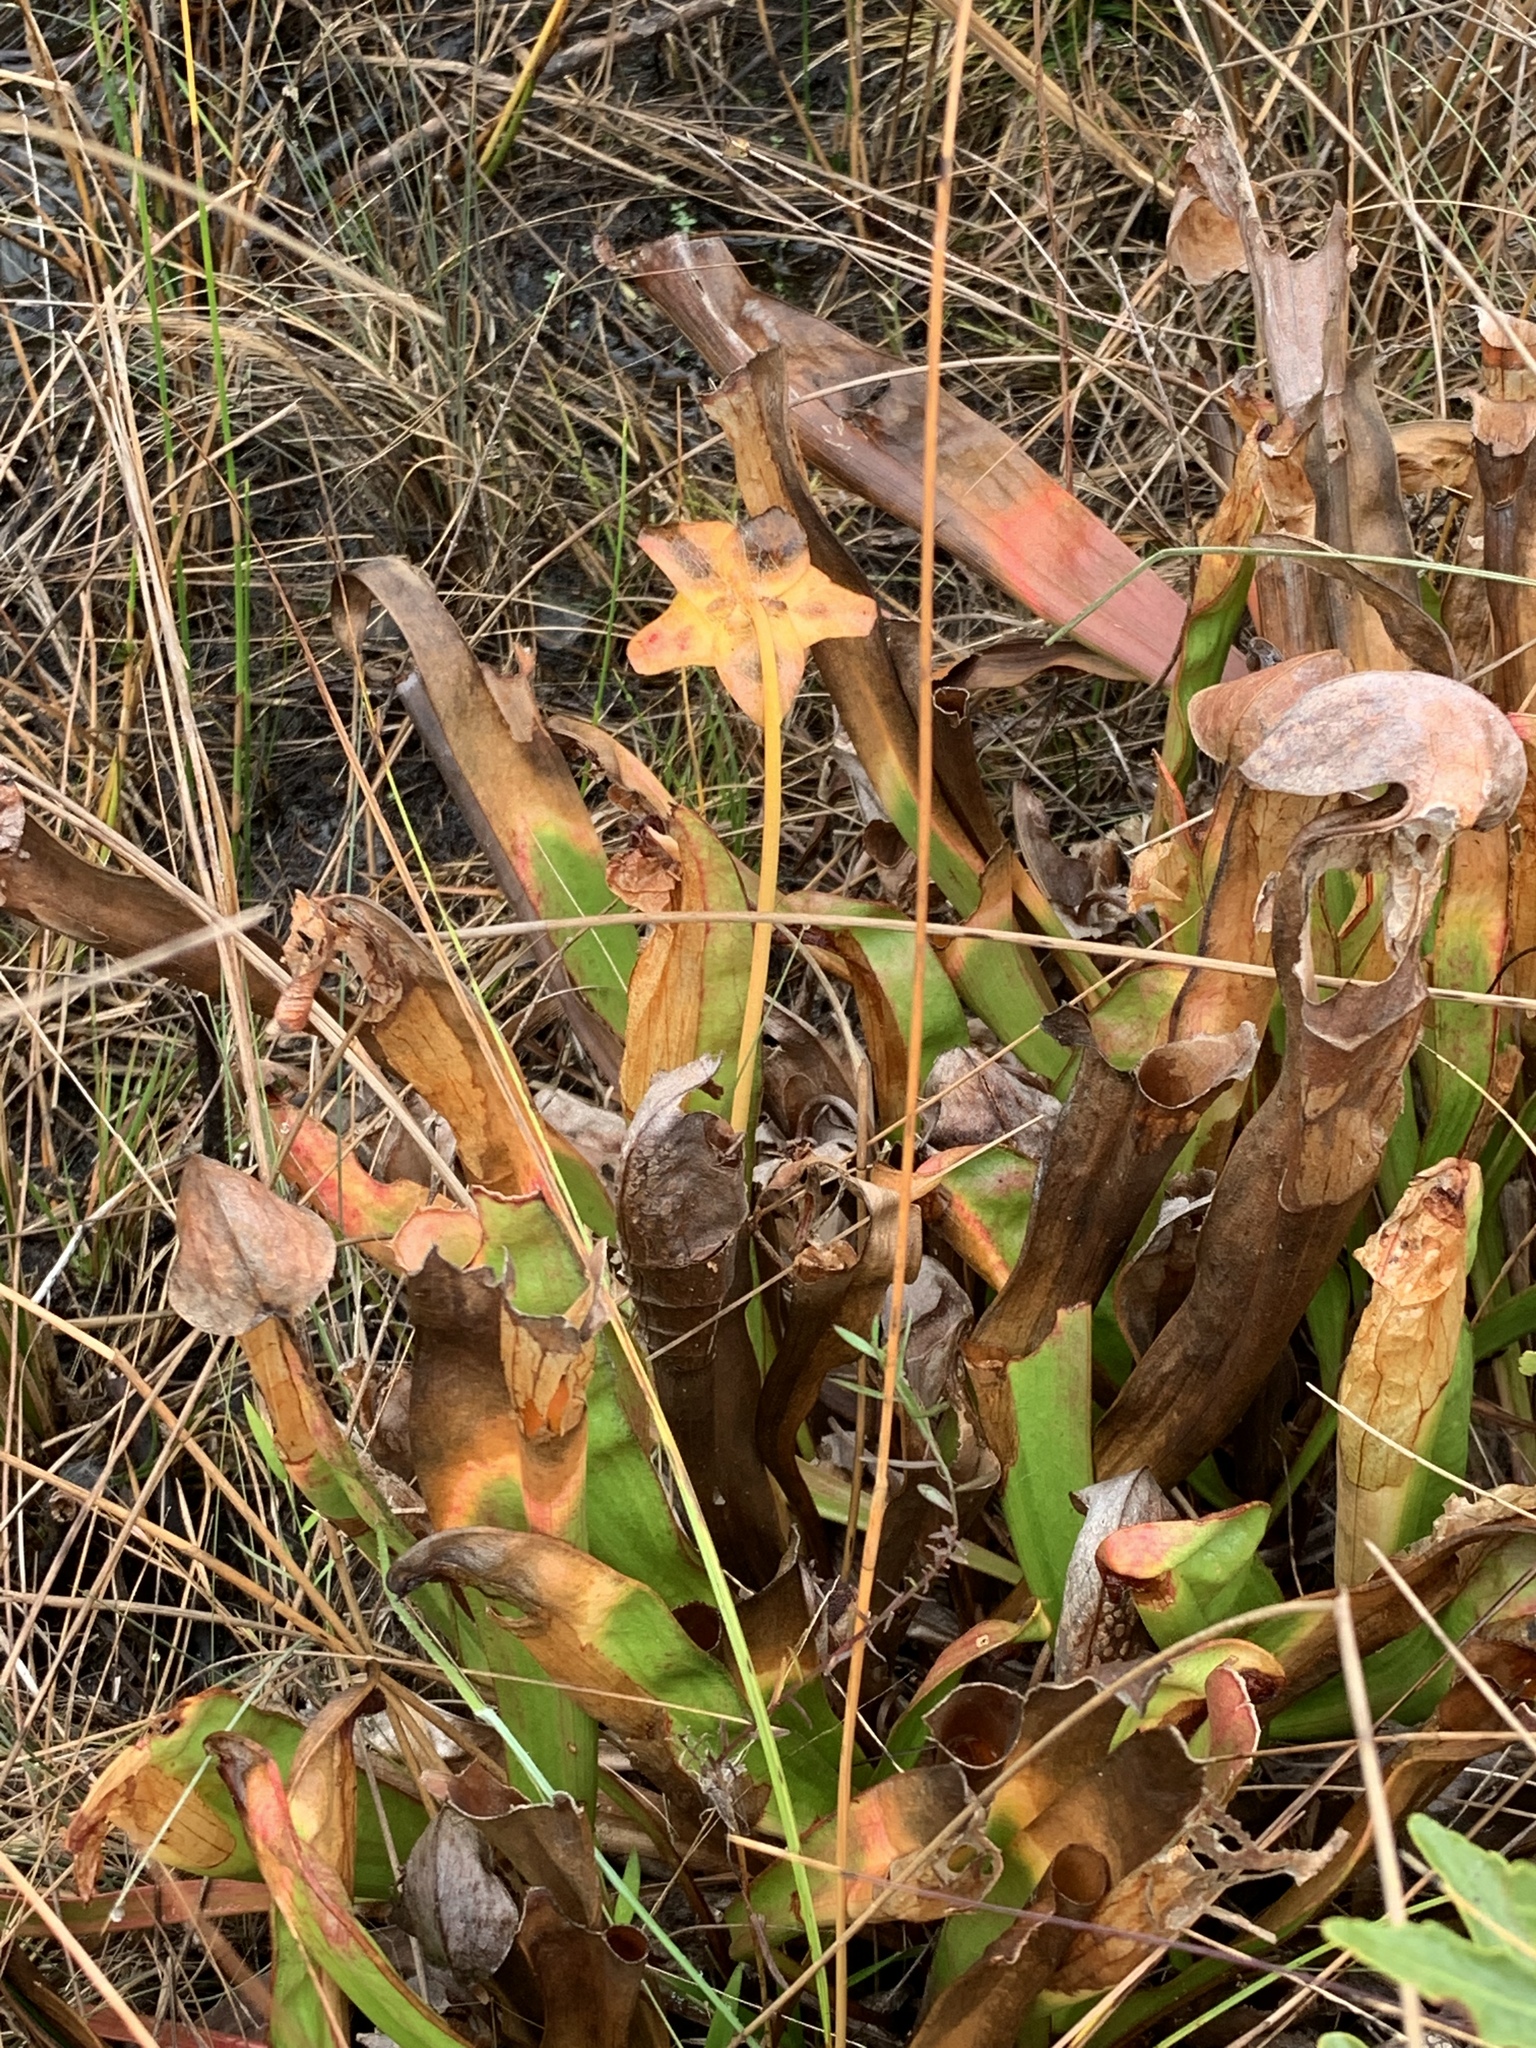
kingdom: Plantae
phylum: Tracheophyta
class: Magnoliopsida
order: Ericales
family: Sarraceniaceae
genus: Sarracenia
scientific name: Sarracenia minor
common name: Rainhat-trumpet
